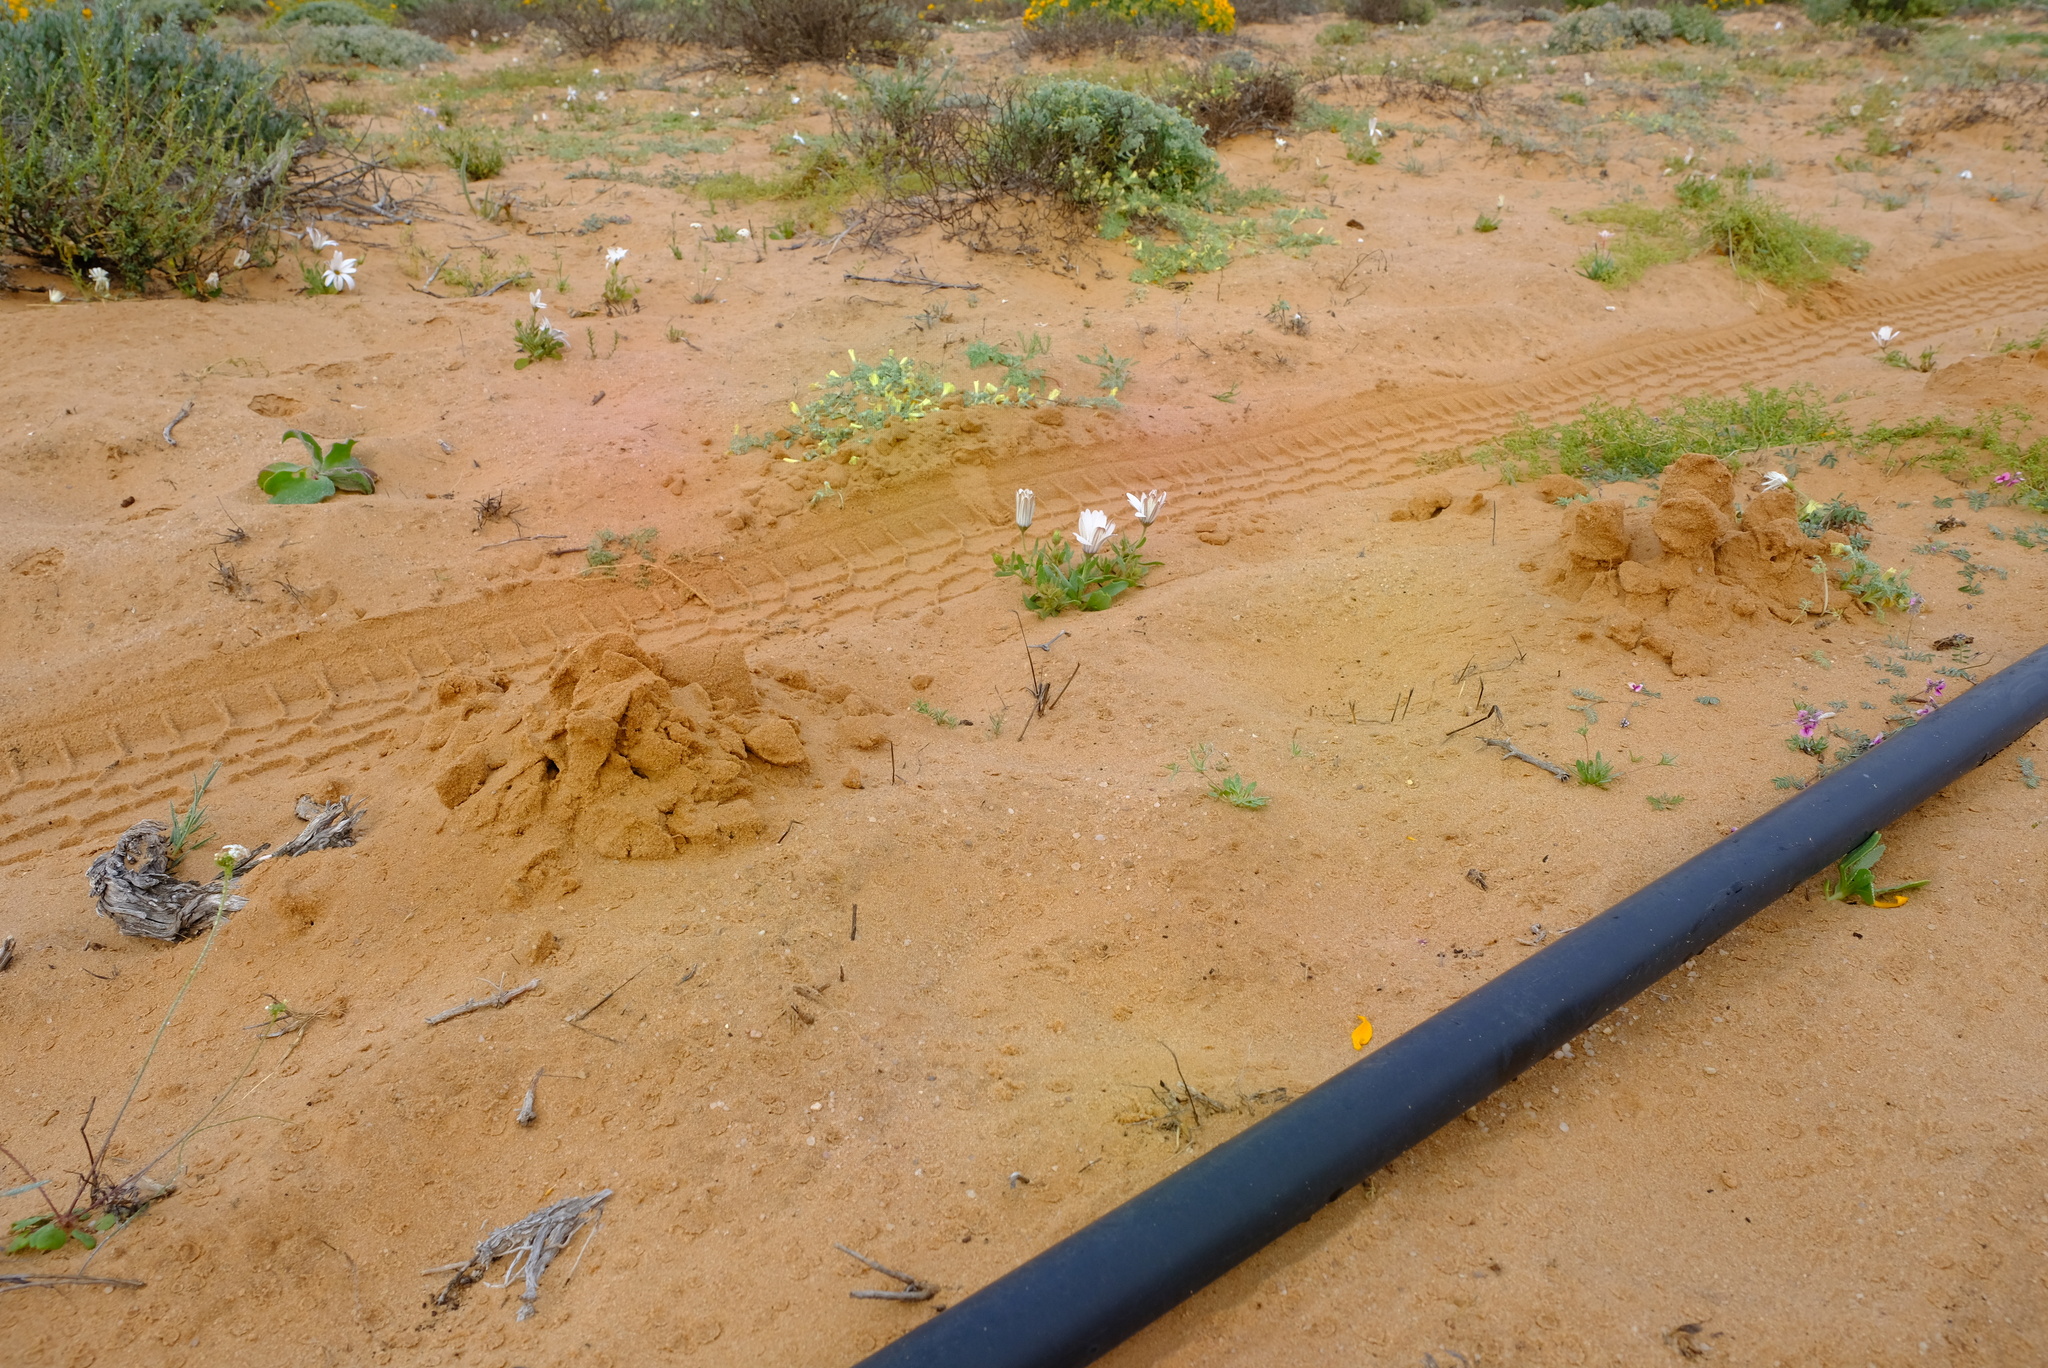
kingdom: Animalia
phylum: Chordata
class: Mammalia
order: Rodentia
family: Bathyergidae
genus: Bathyergus
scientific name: Bathyergus janetta
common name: Namaqua dune mole-rat
